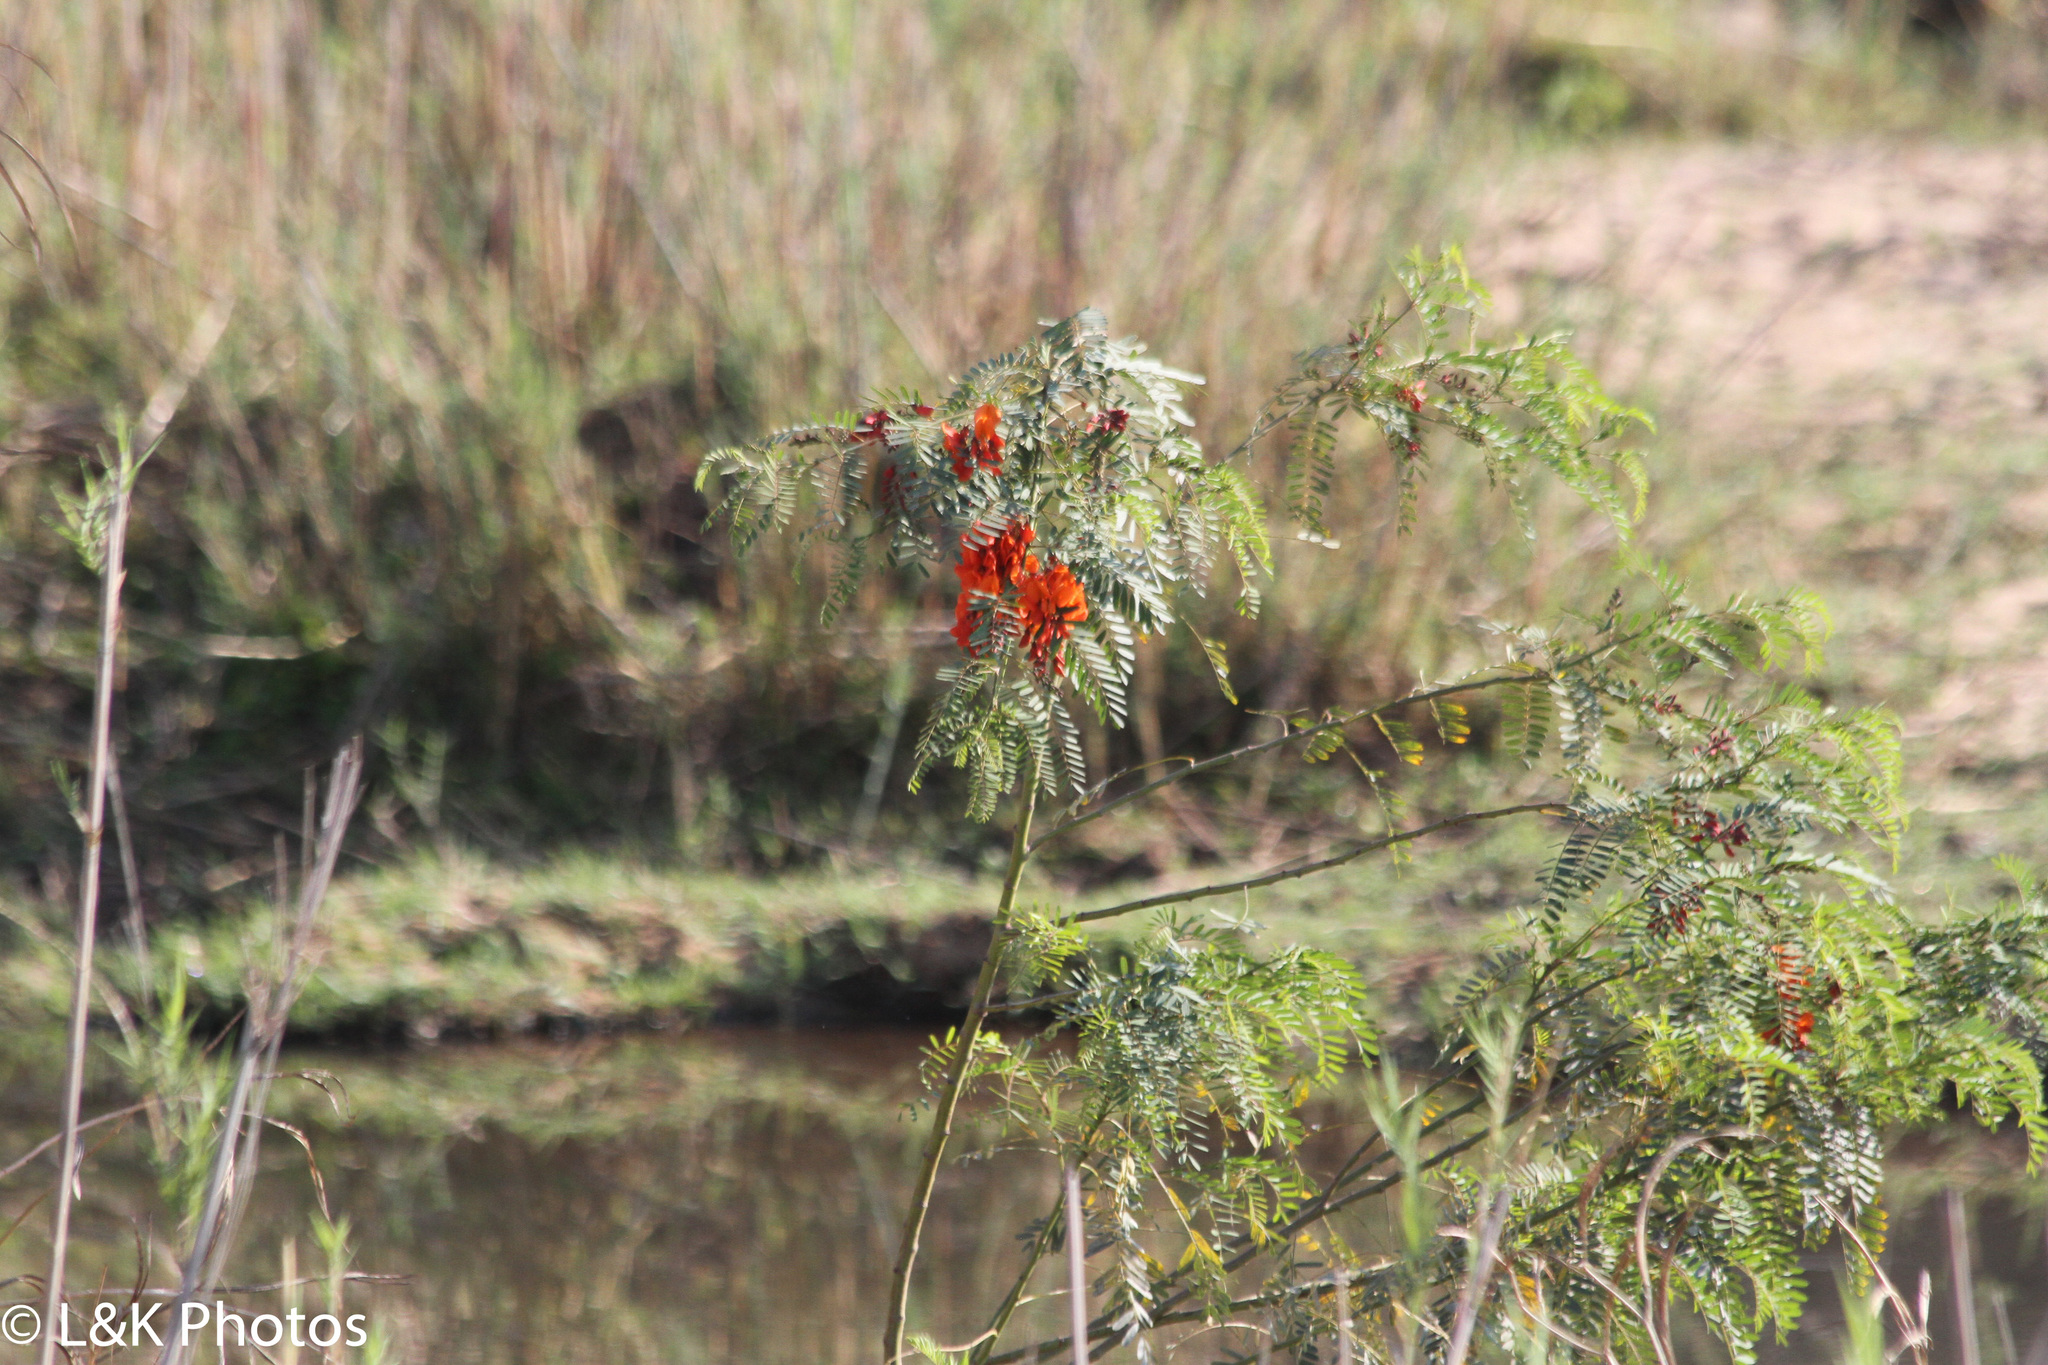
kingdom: Plantae
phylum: Tracheophyta
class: Magnoliopsida
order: Fabales
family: Fabaceae
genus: Sesbania
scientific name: Sesbania punicea
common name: Rattlebox
